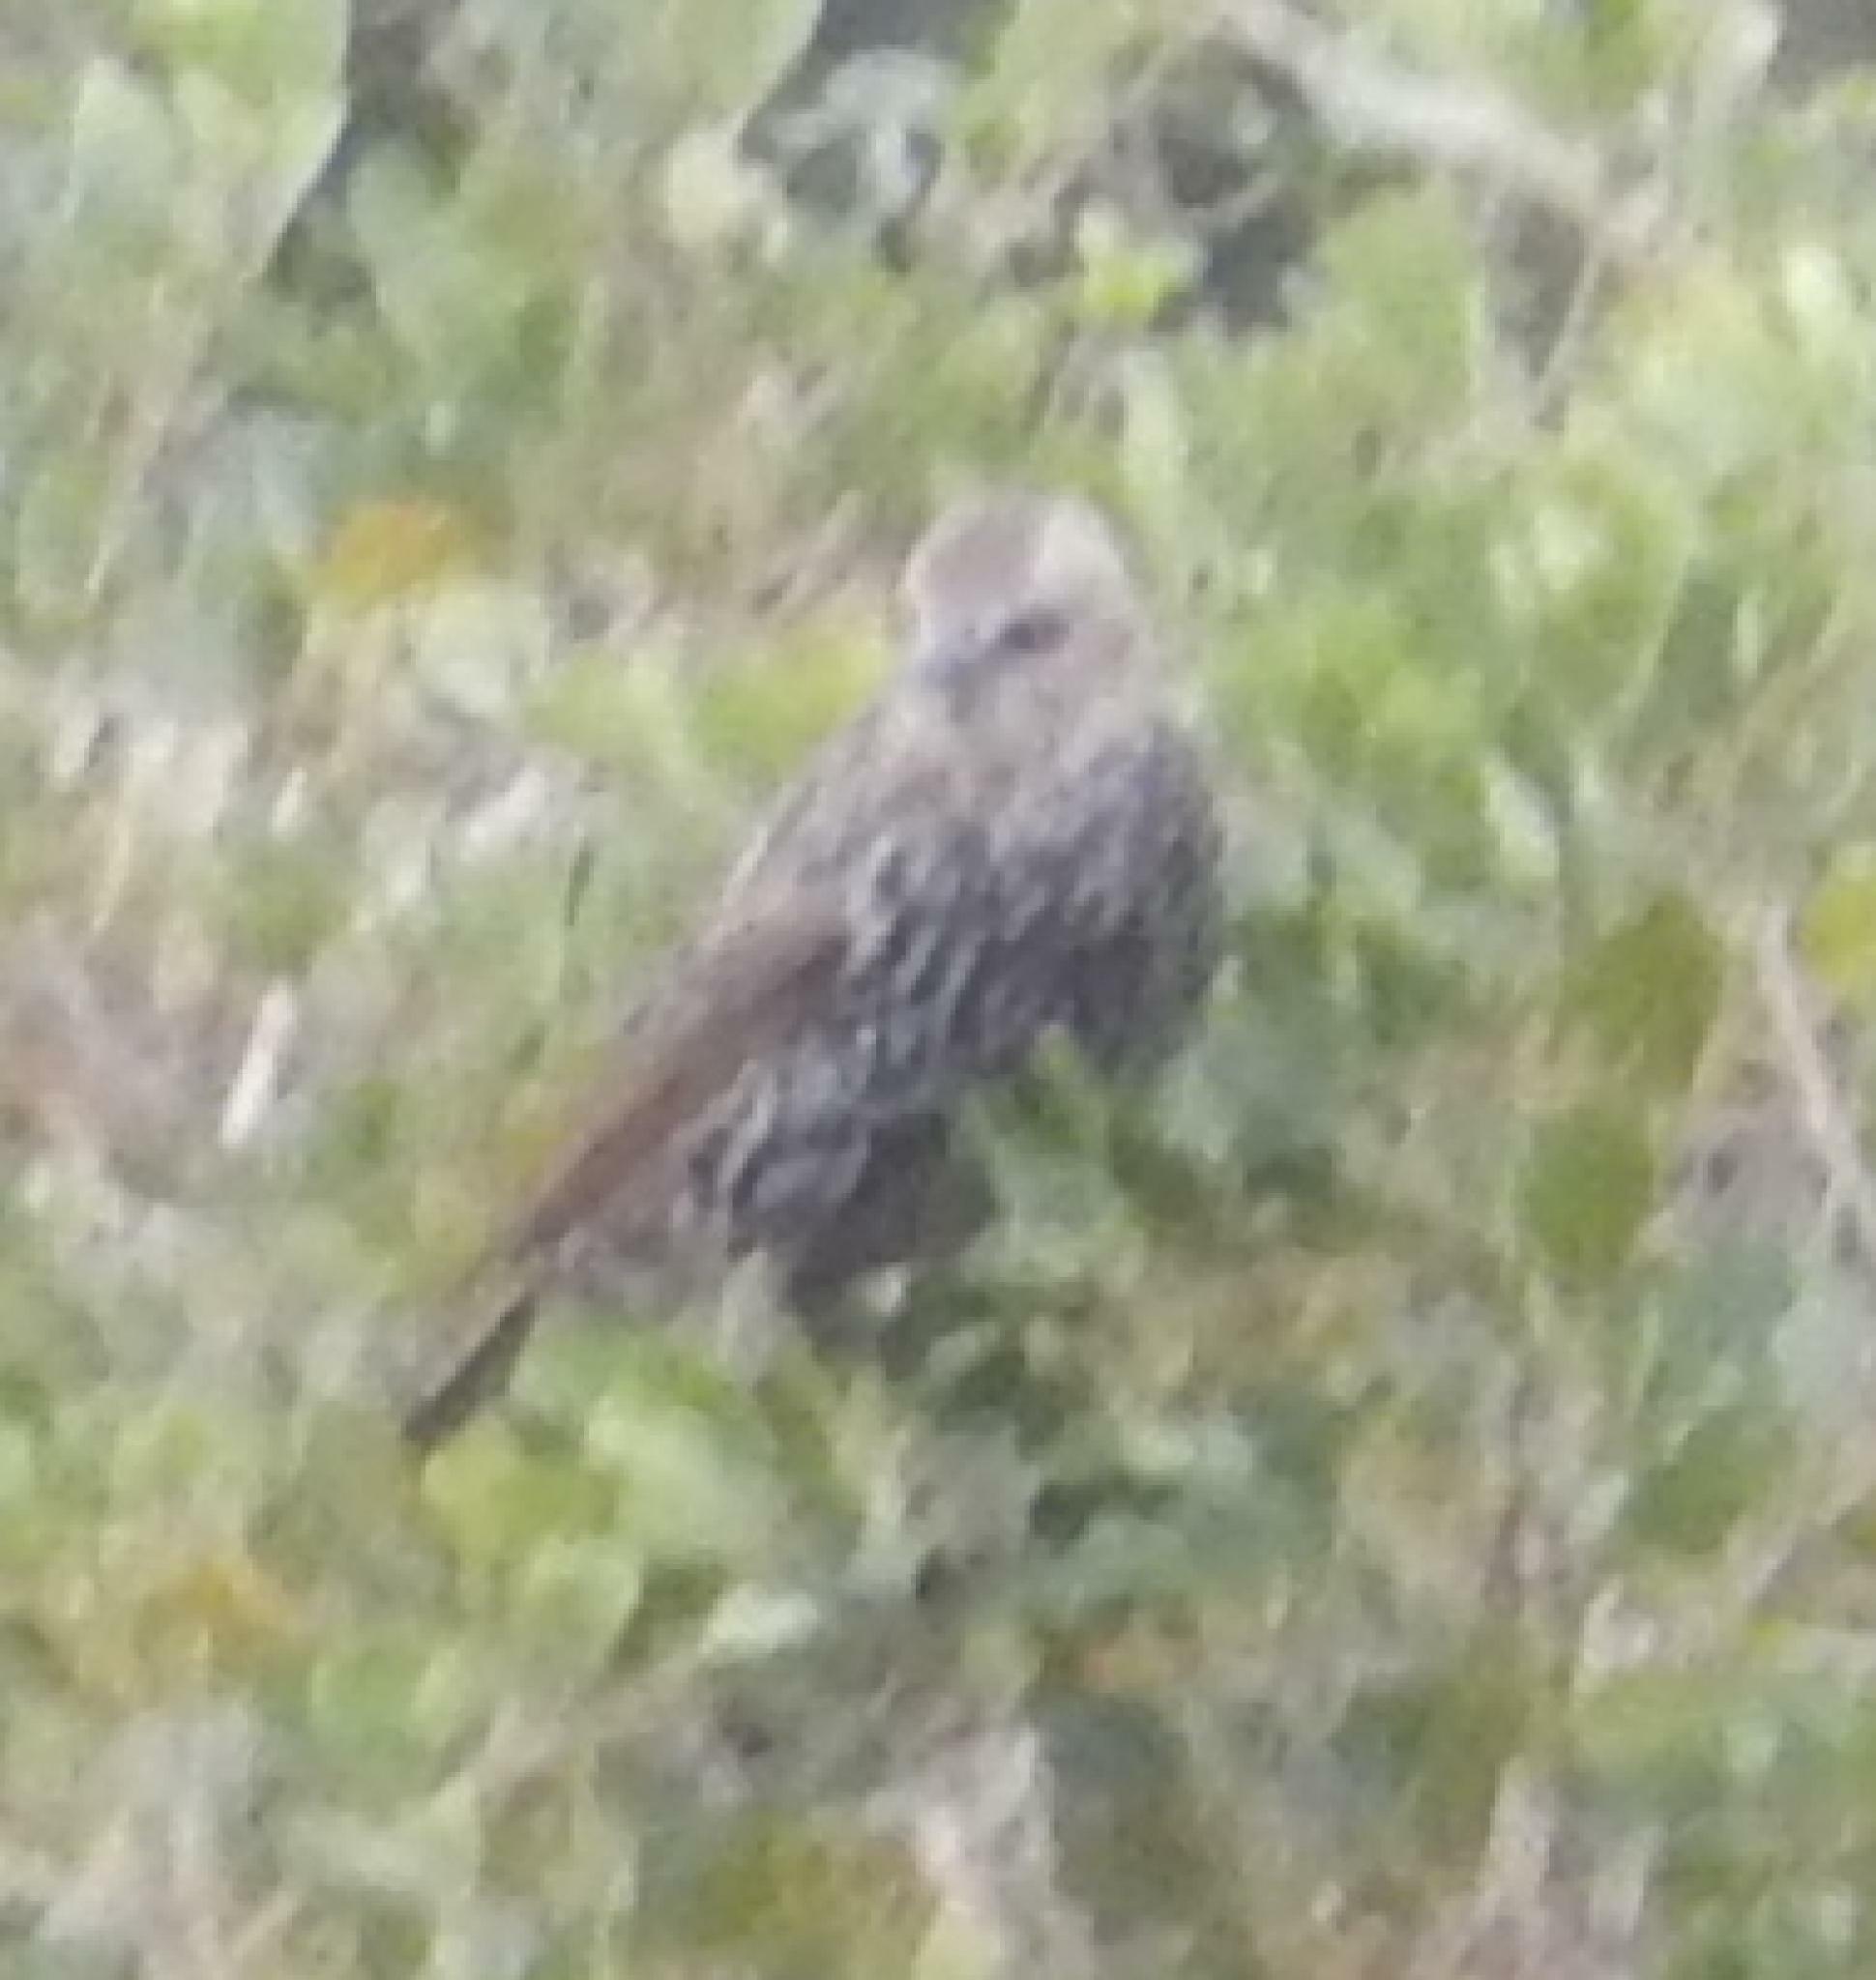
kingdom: Animalia
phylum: Chordata
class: Aves
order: Passeriformes
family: Sturnidae
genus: Sturnus
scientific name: Sturnus vulgaris
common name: Common starling
